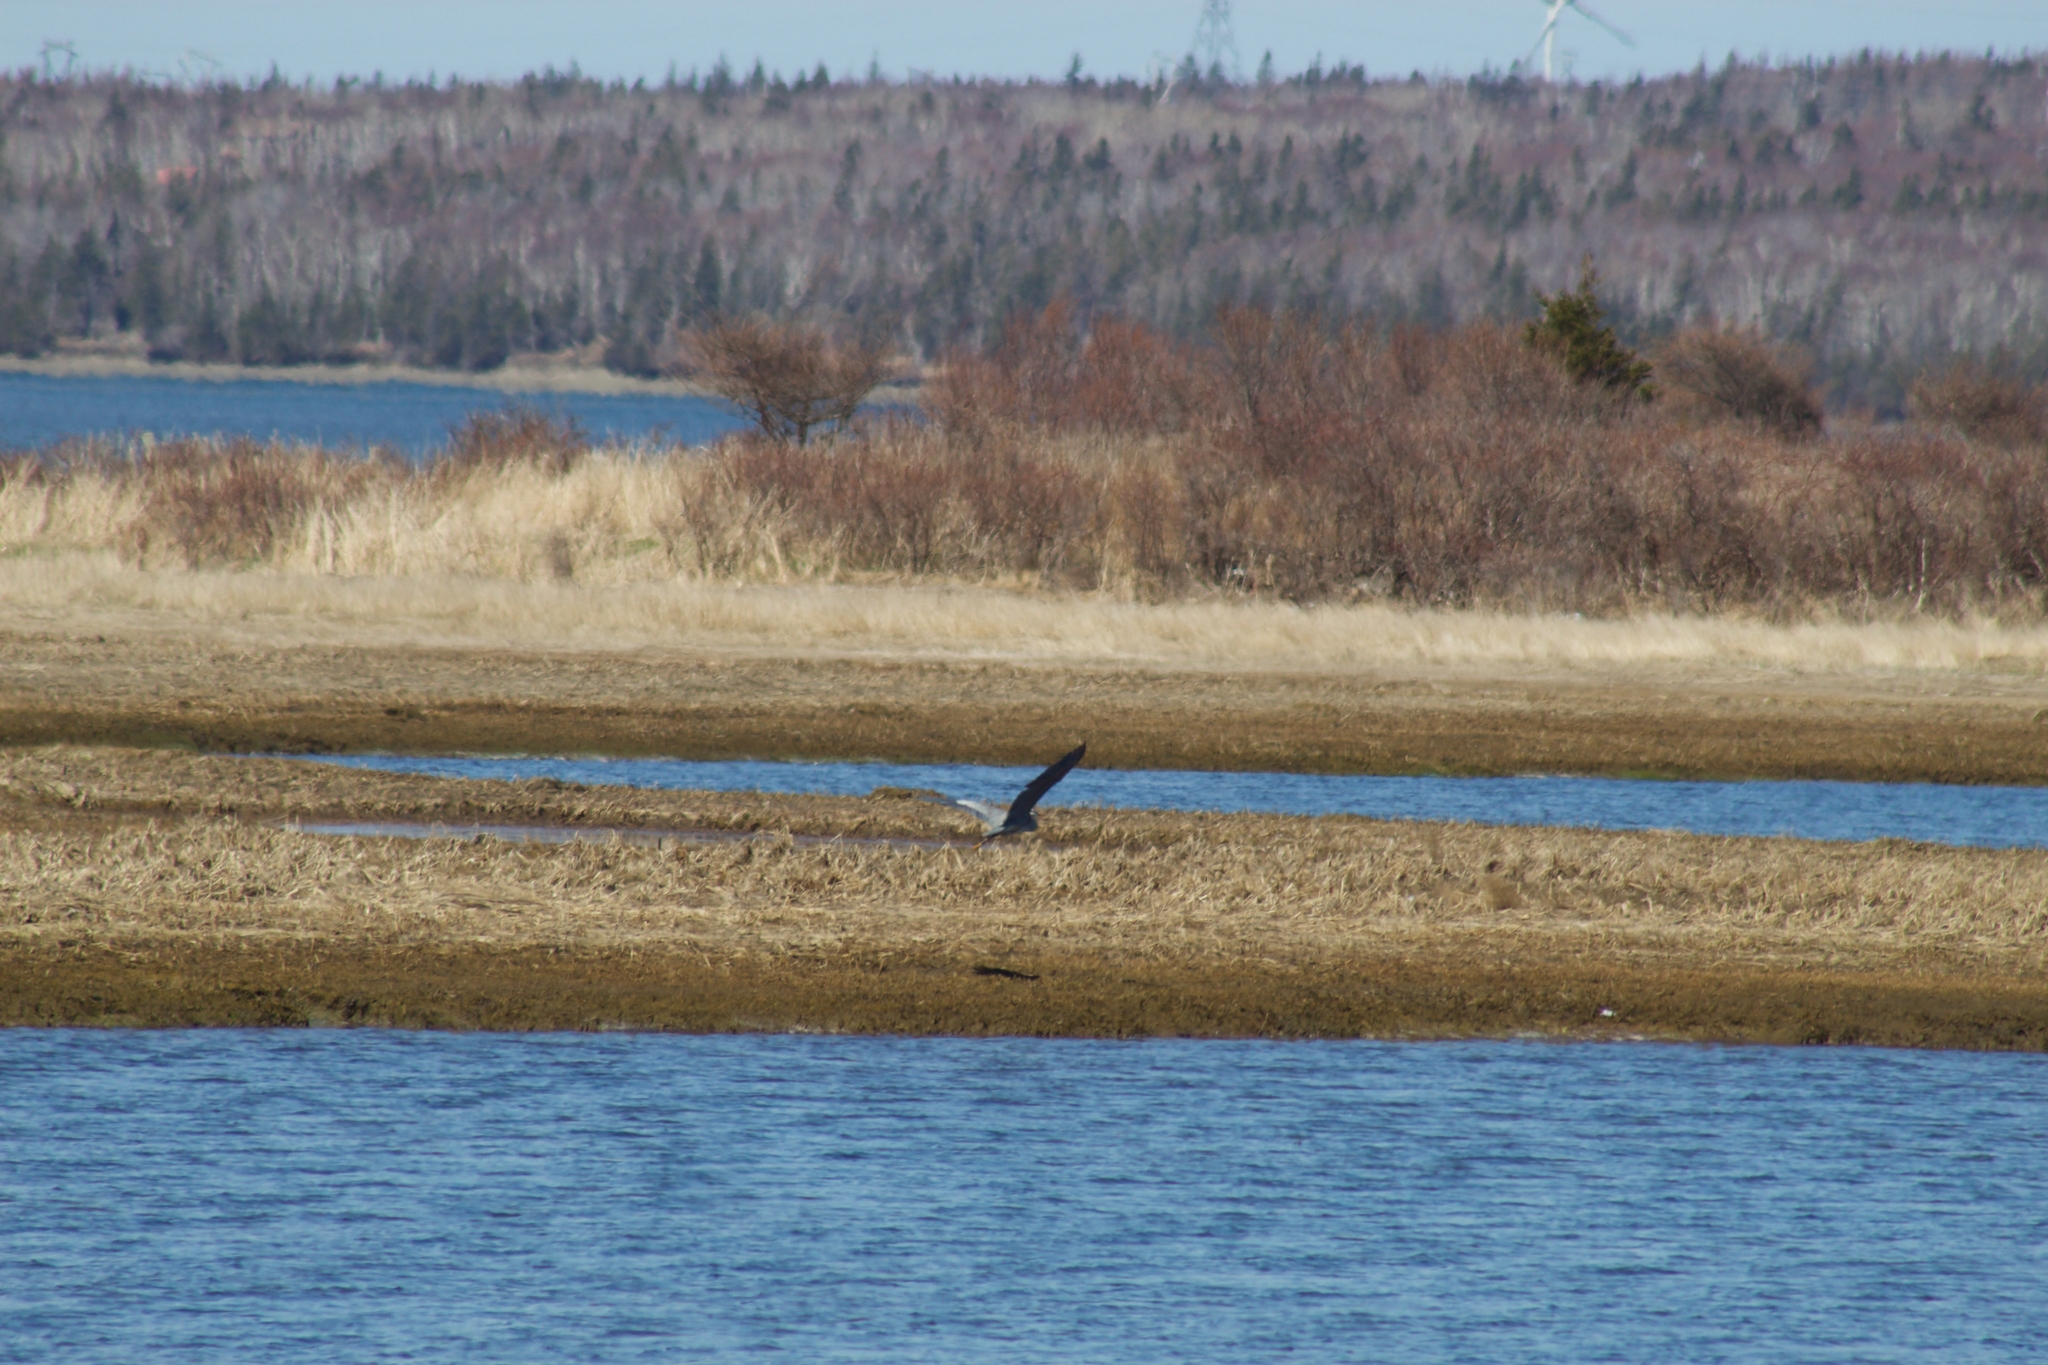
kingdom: Animalia
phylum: Chordata
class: Aves
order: Pelecaniformes
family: Ardeidae
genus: Ardea
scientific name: Ardea herodias
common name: Great blue heron
